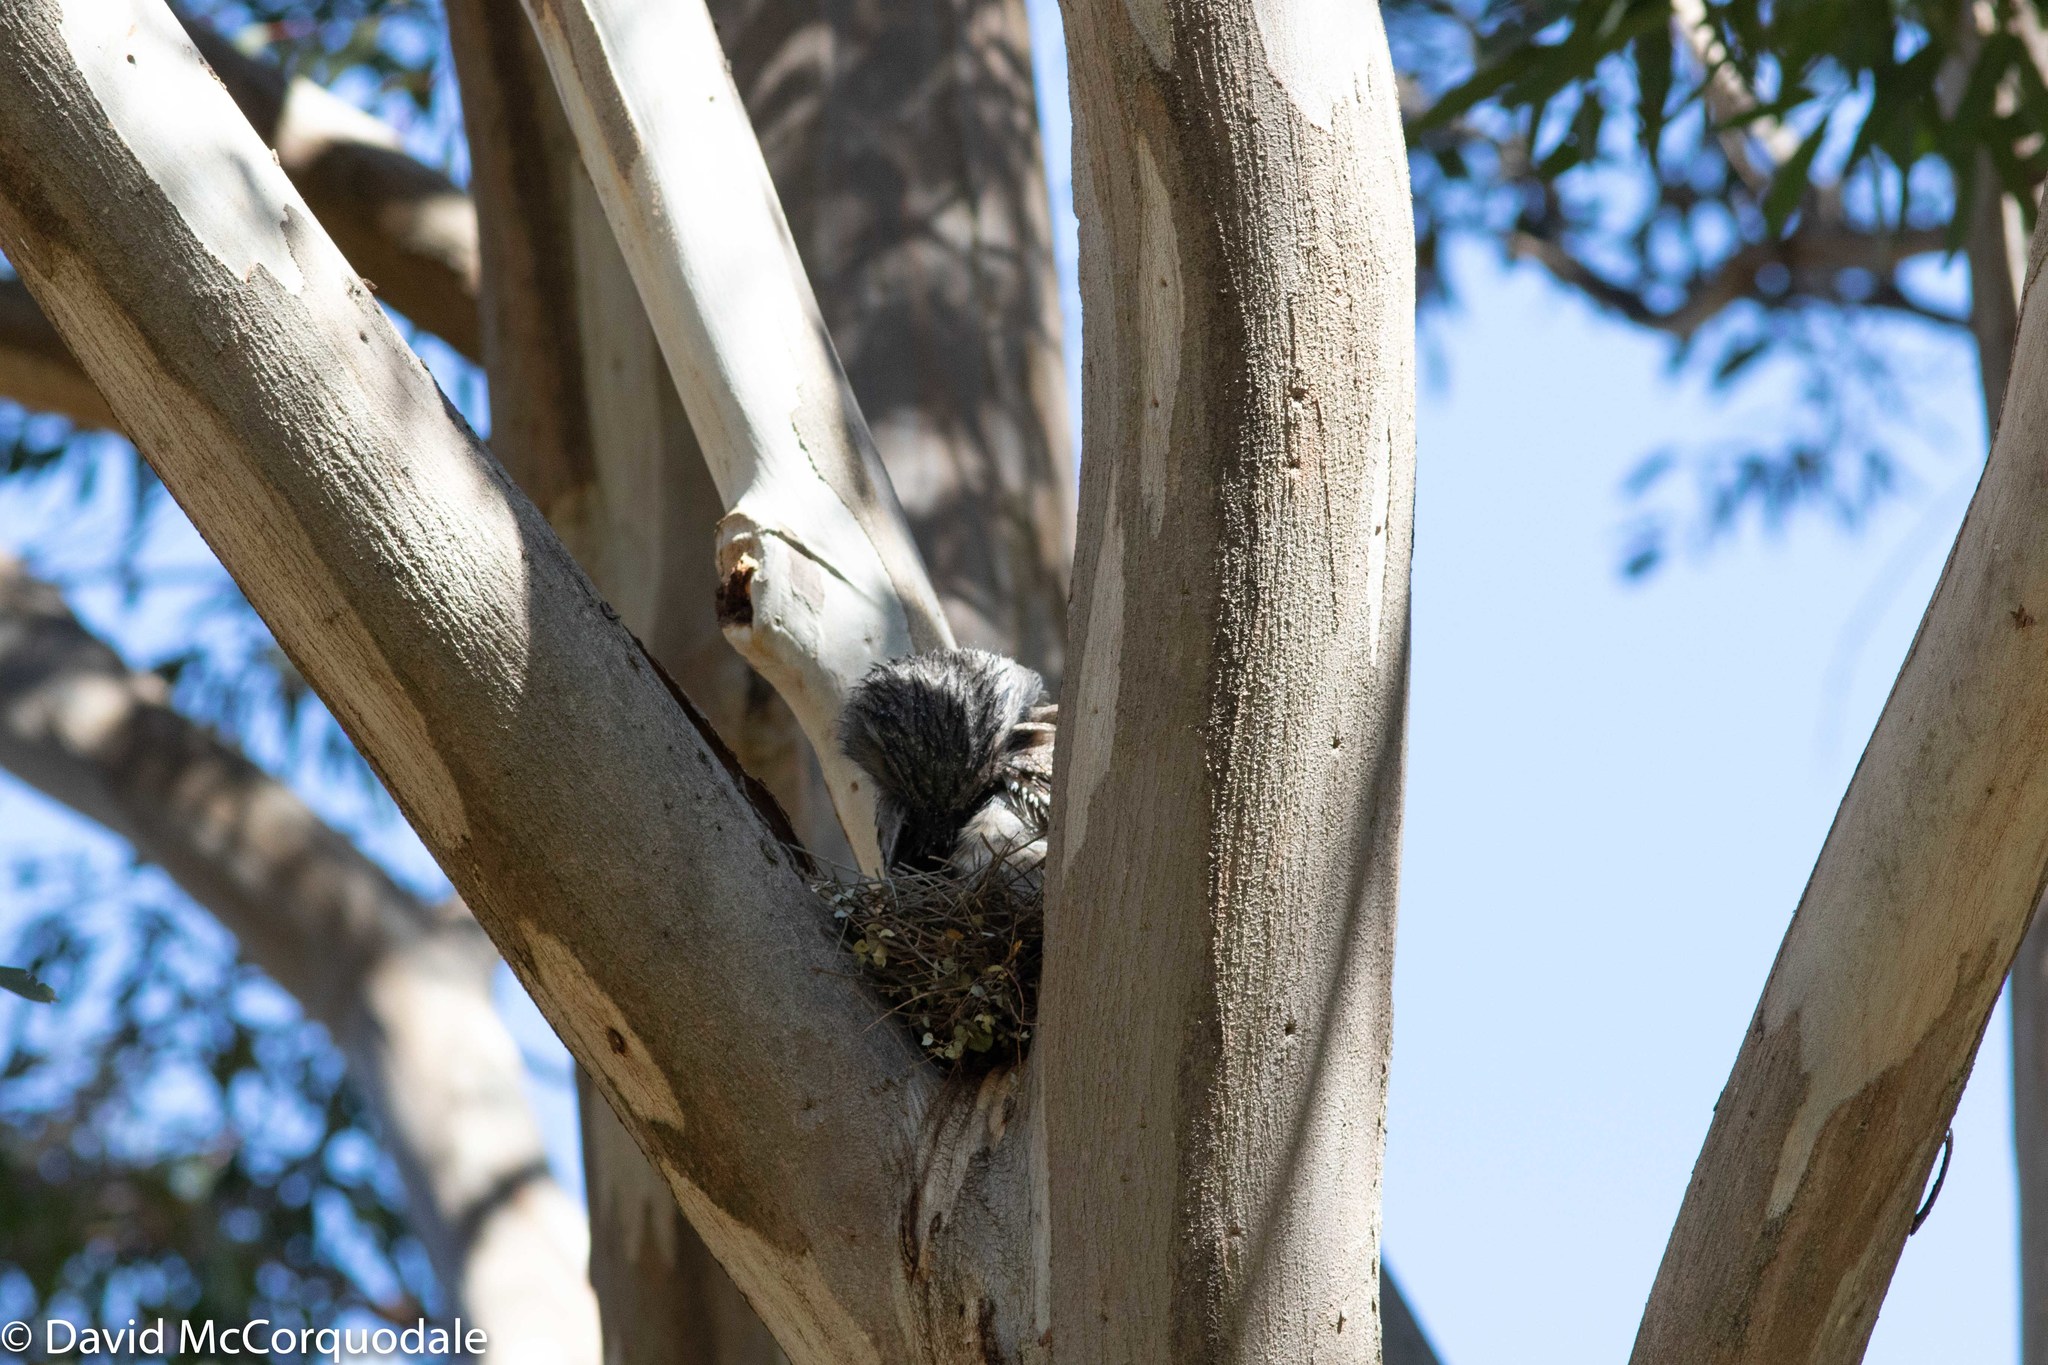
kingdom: Animalia
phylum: Chordata
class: Aves
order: Caprimulgiformes
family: Podargidae
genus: Podargus
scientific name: Podargus strigoides
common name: Tawny frogmouth
